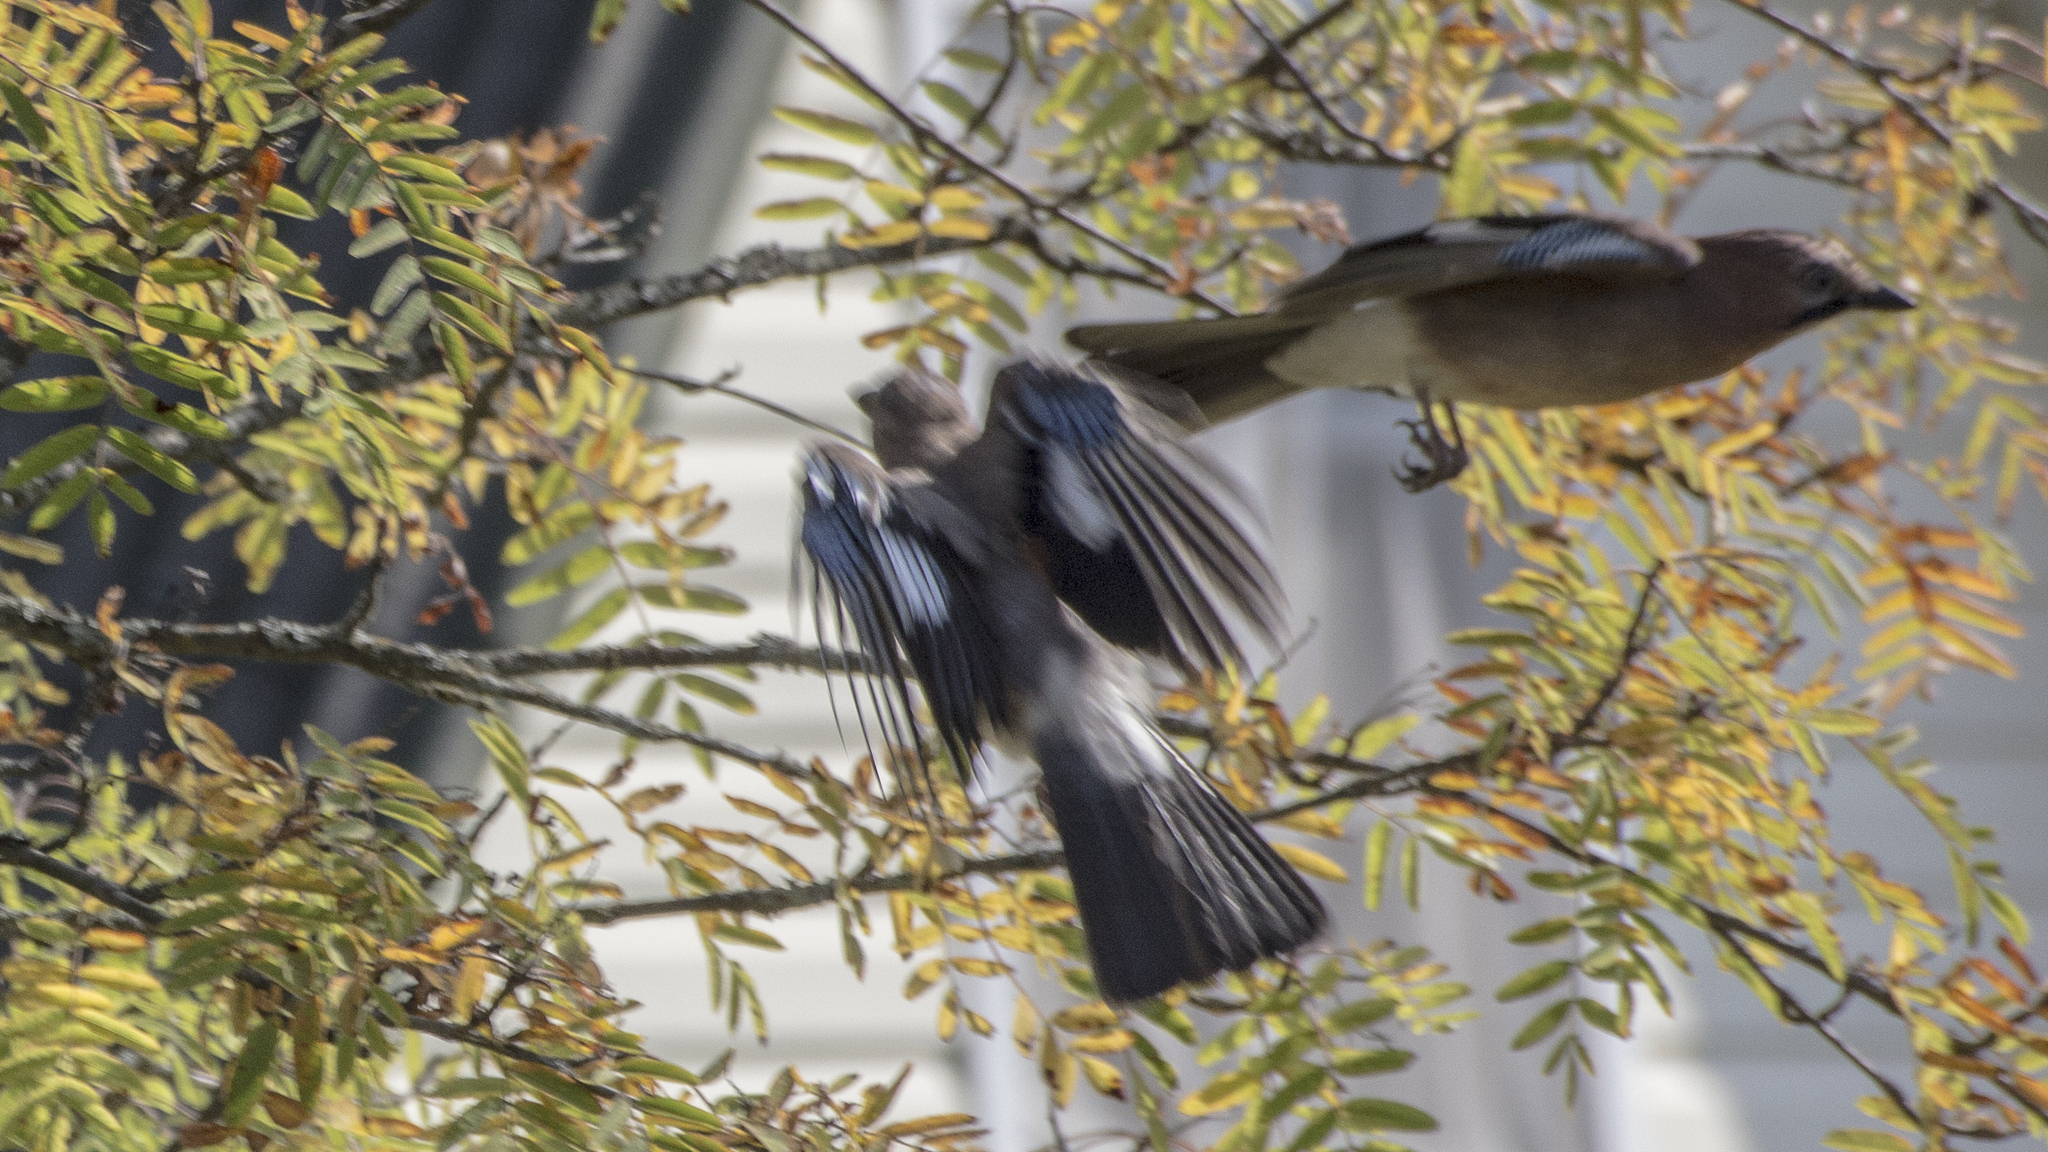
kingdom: Animalia
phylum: Chordata
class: Aves
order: Passeriformes
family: Corvidae
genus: Garrulus
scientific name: Garrulus glandarius
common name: Eurasian jay
